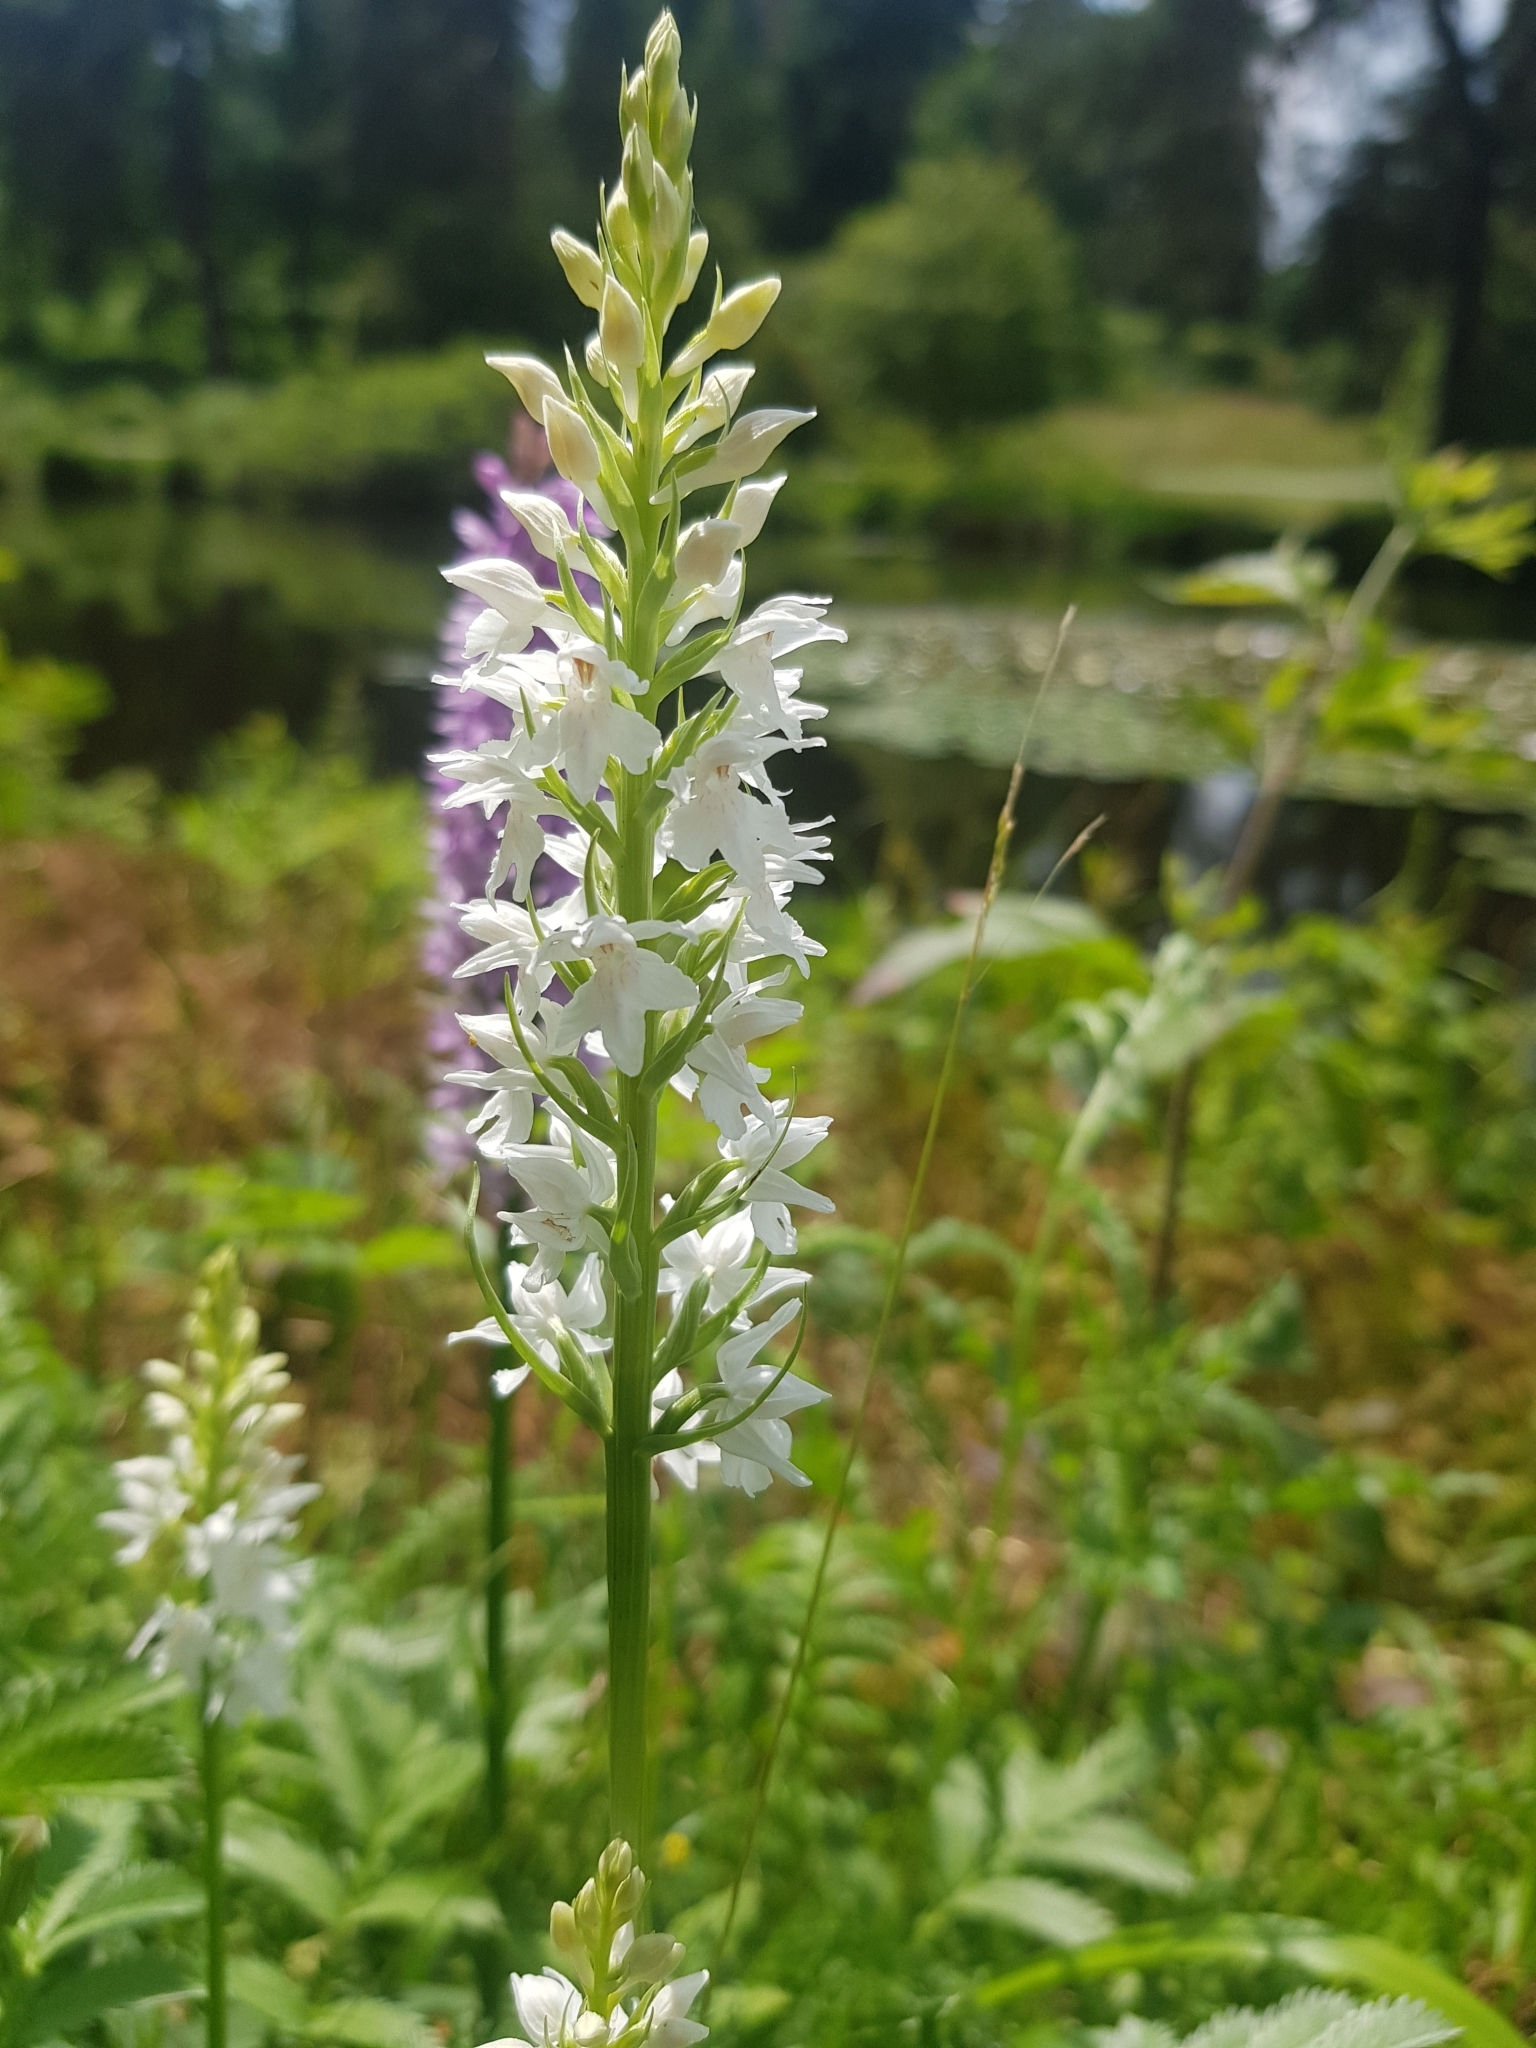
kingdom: Plantae
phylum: Tracheophyta
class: Liliopsida
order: Asparagales
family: Orchidaceae
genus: Dactylorhiza
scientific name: Dactylorhiza maculata
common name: Heath spotted-orchid
